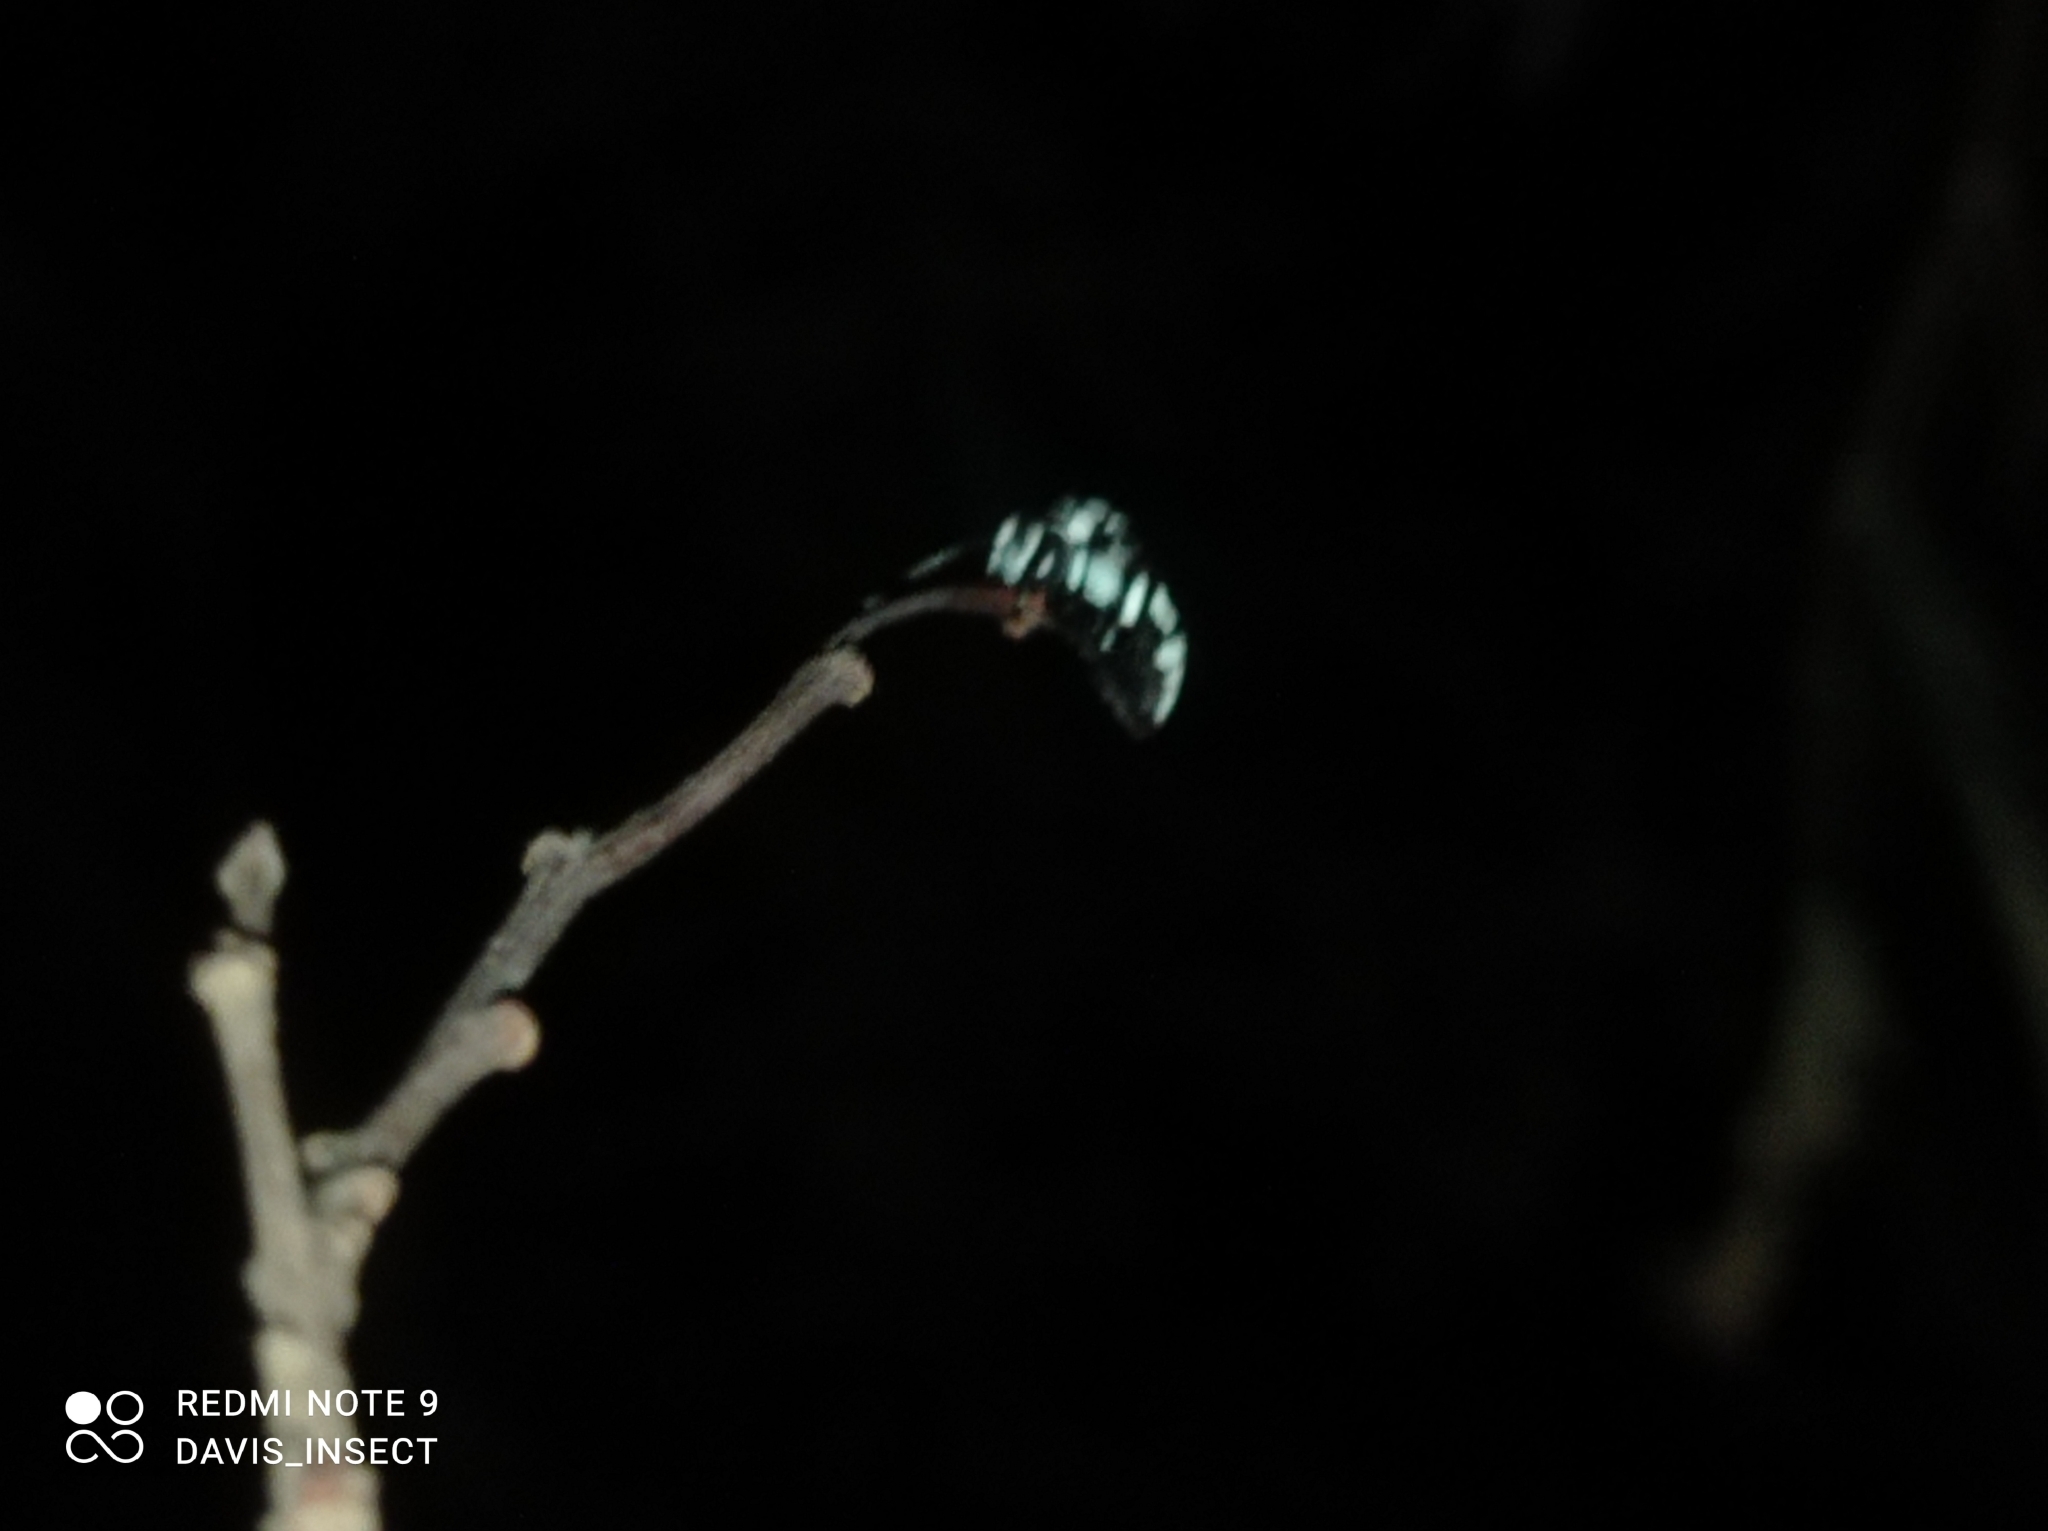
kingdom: Animalia
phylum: Arthropoda
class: Insecta
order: Hymenoptera
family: Apidae
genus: Thyreus
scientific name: Thyreus novaehollandiae
